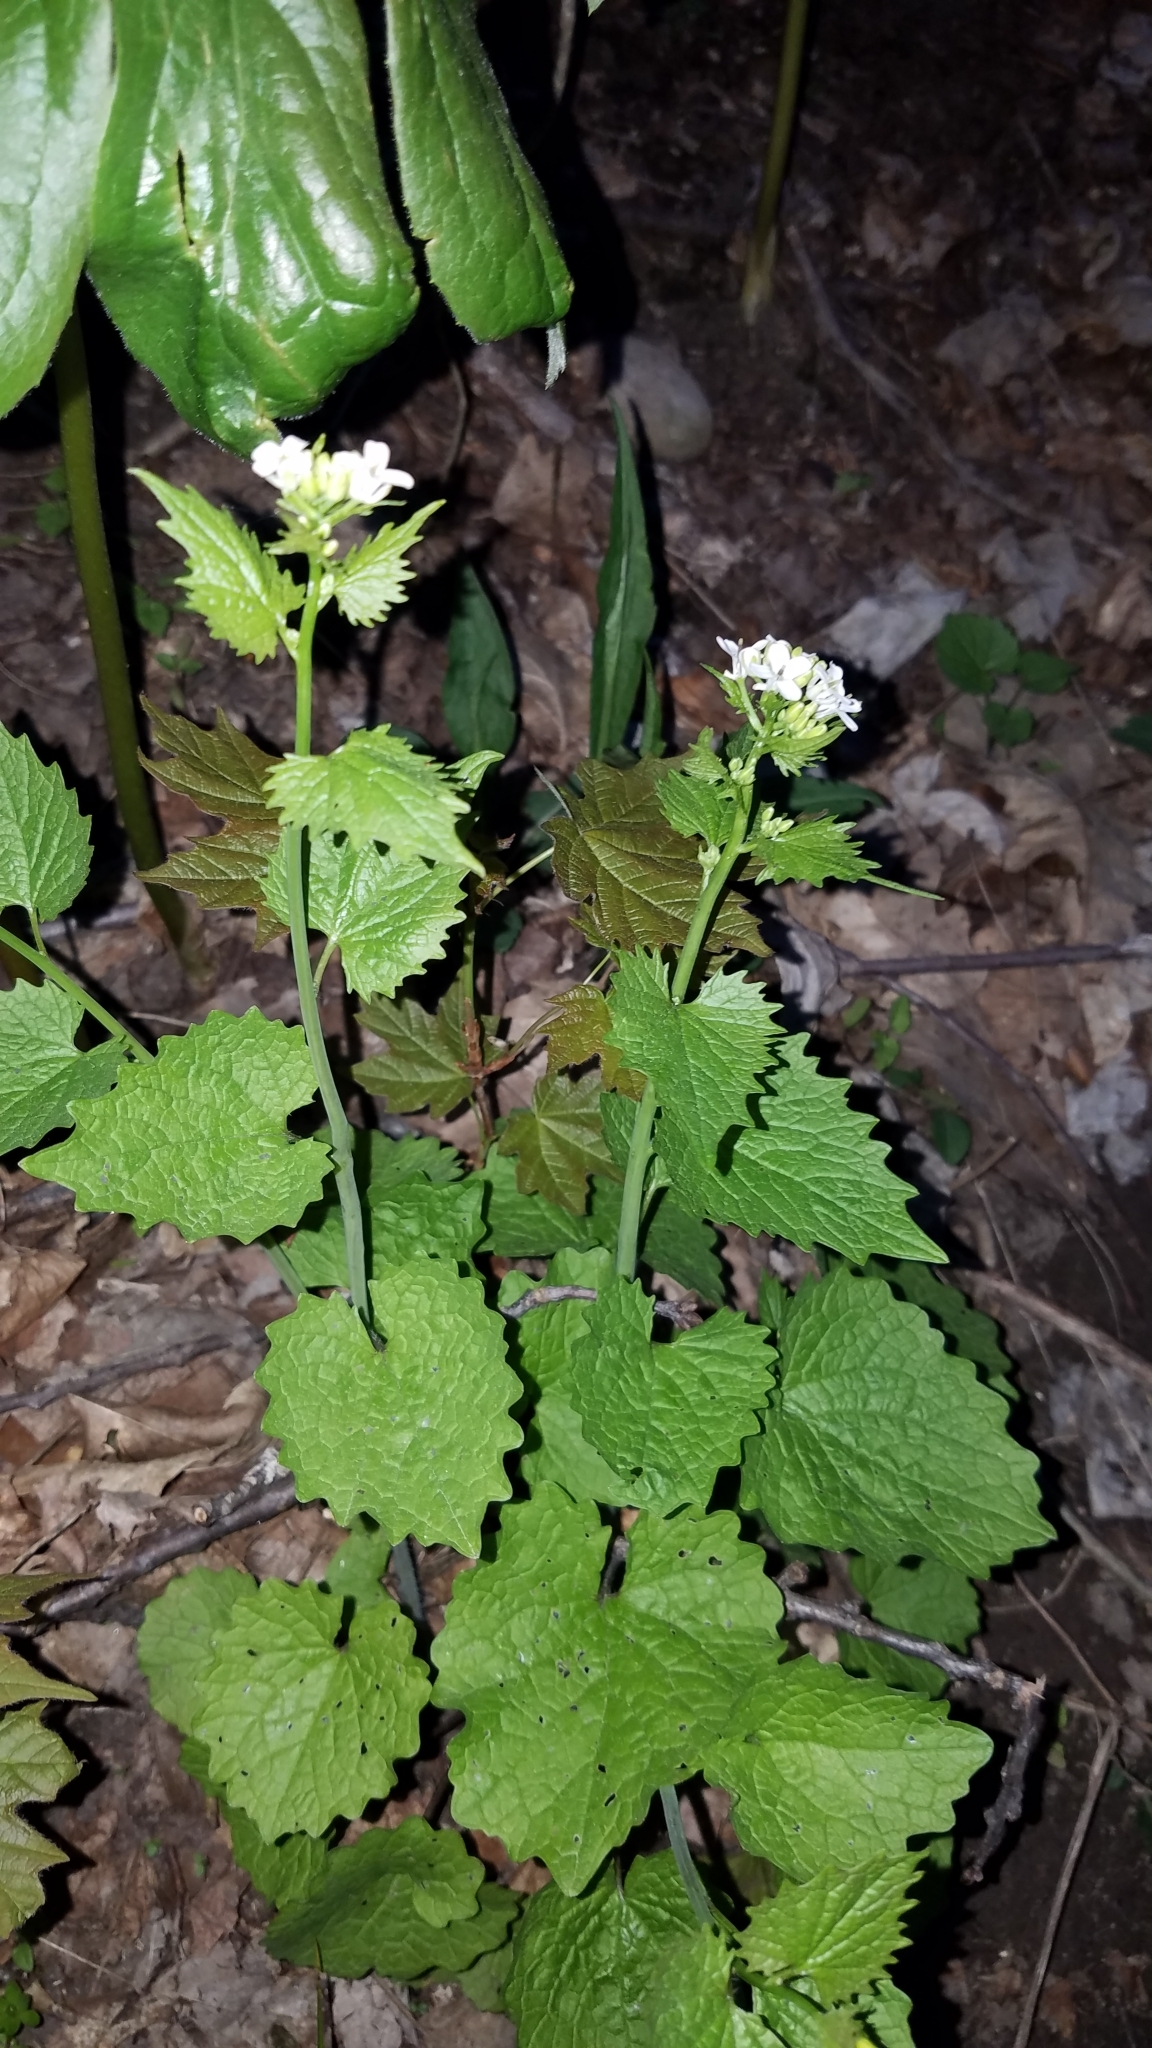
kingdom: Plantae
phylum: Tracheophyta
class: Magnoliopsida
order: Brassicales
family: Brassicaceae
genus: Alliaria
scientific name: Alliaria petiolata
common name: Garlic mustard
